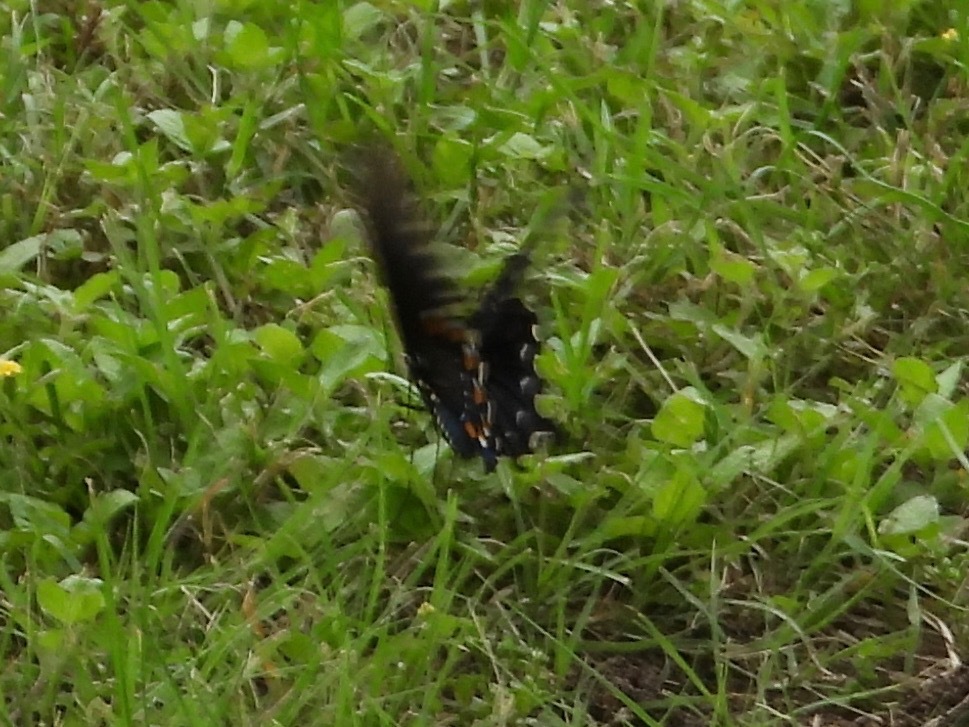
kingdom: Animalia
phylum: Arthropoda
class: Insecta
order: Lepidoptera
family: Papilionidae
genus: Battus
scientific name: Battus philenor
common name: Pipevine swallowtail
